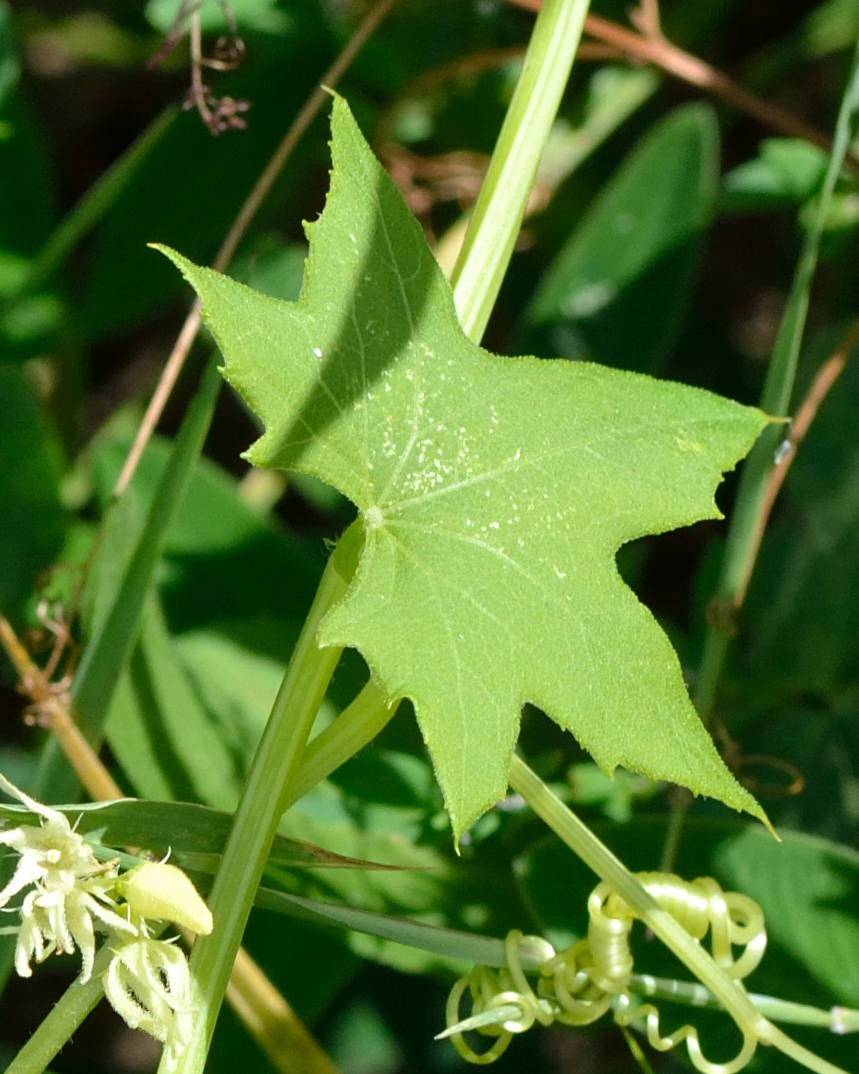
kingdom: Plantae
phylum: Tracheophyta
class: Magnoliopsida
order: Cucurbitales
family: Cucurbitaceae
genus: Echinocystis
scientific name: Echinocystis lobata
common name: Wild cucumber
